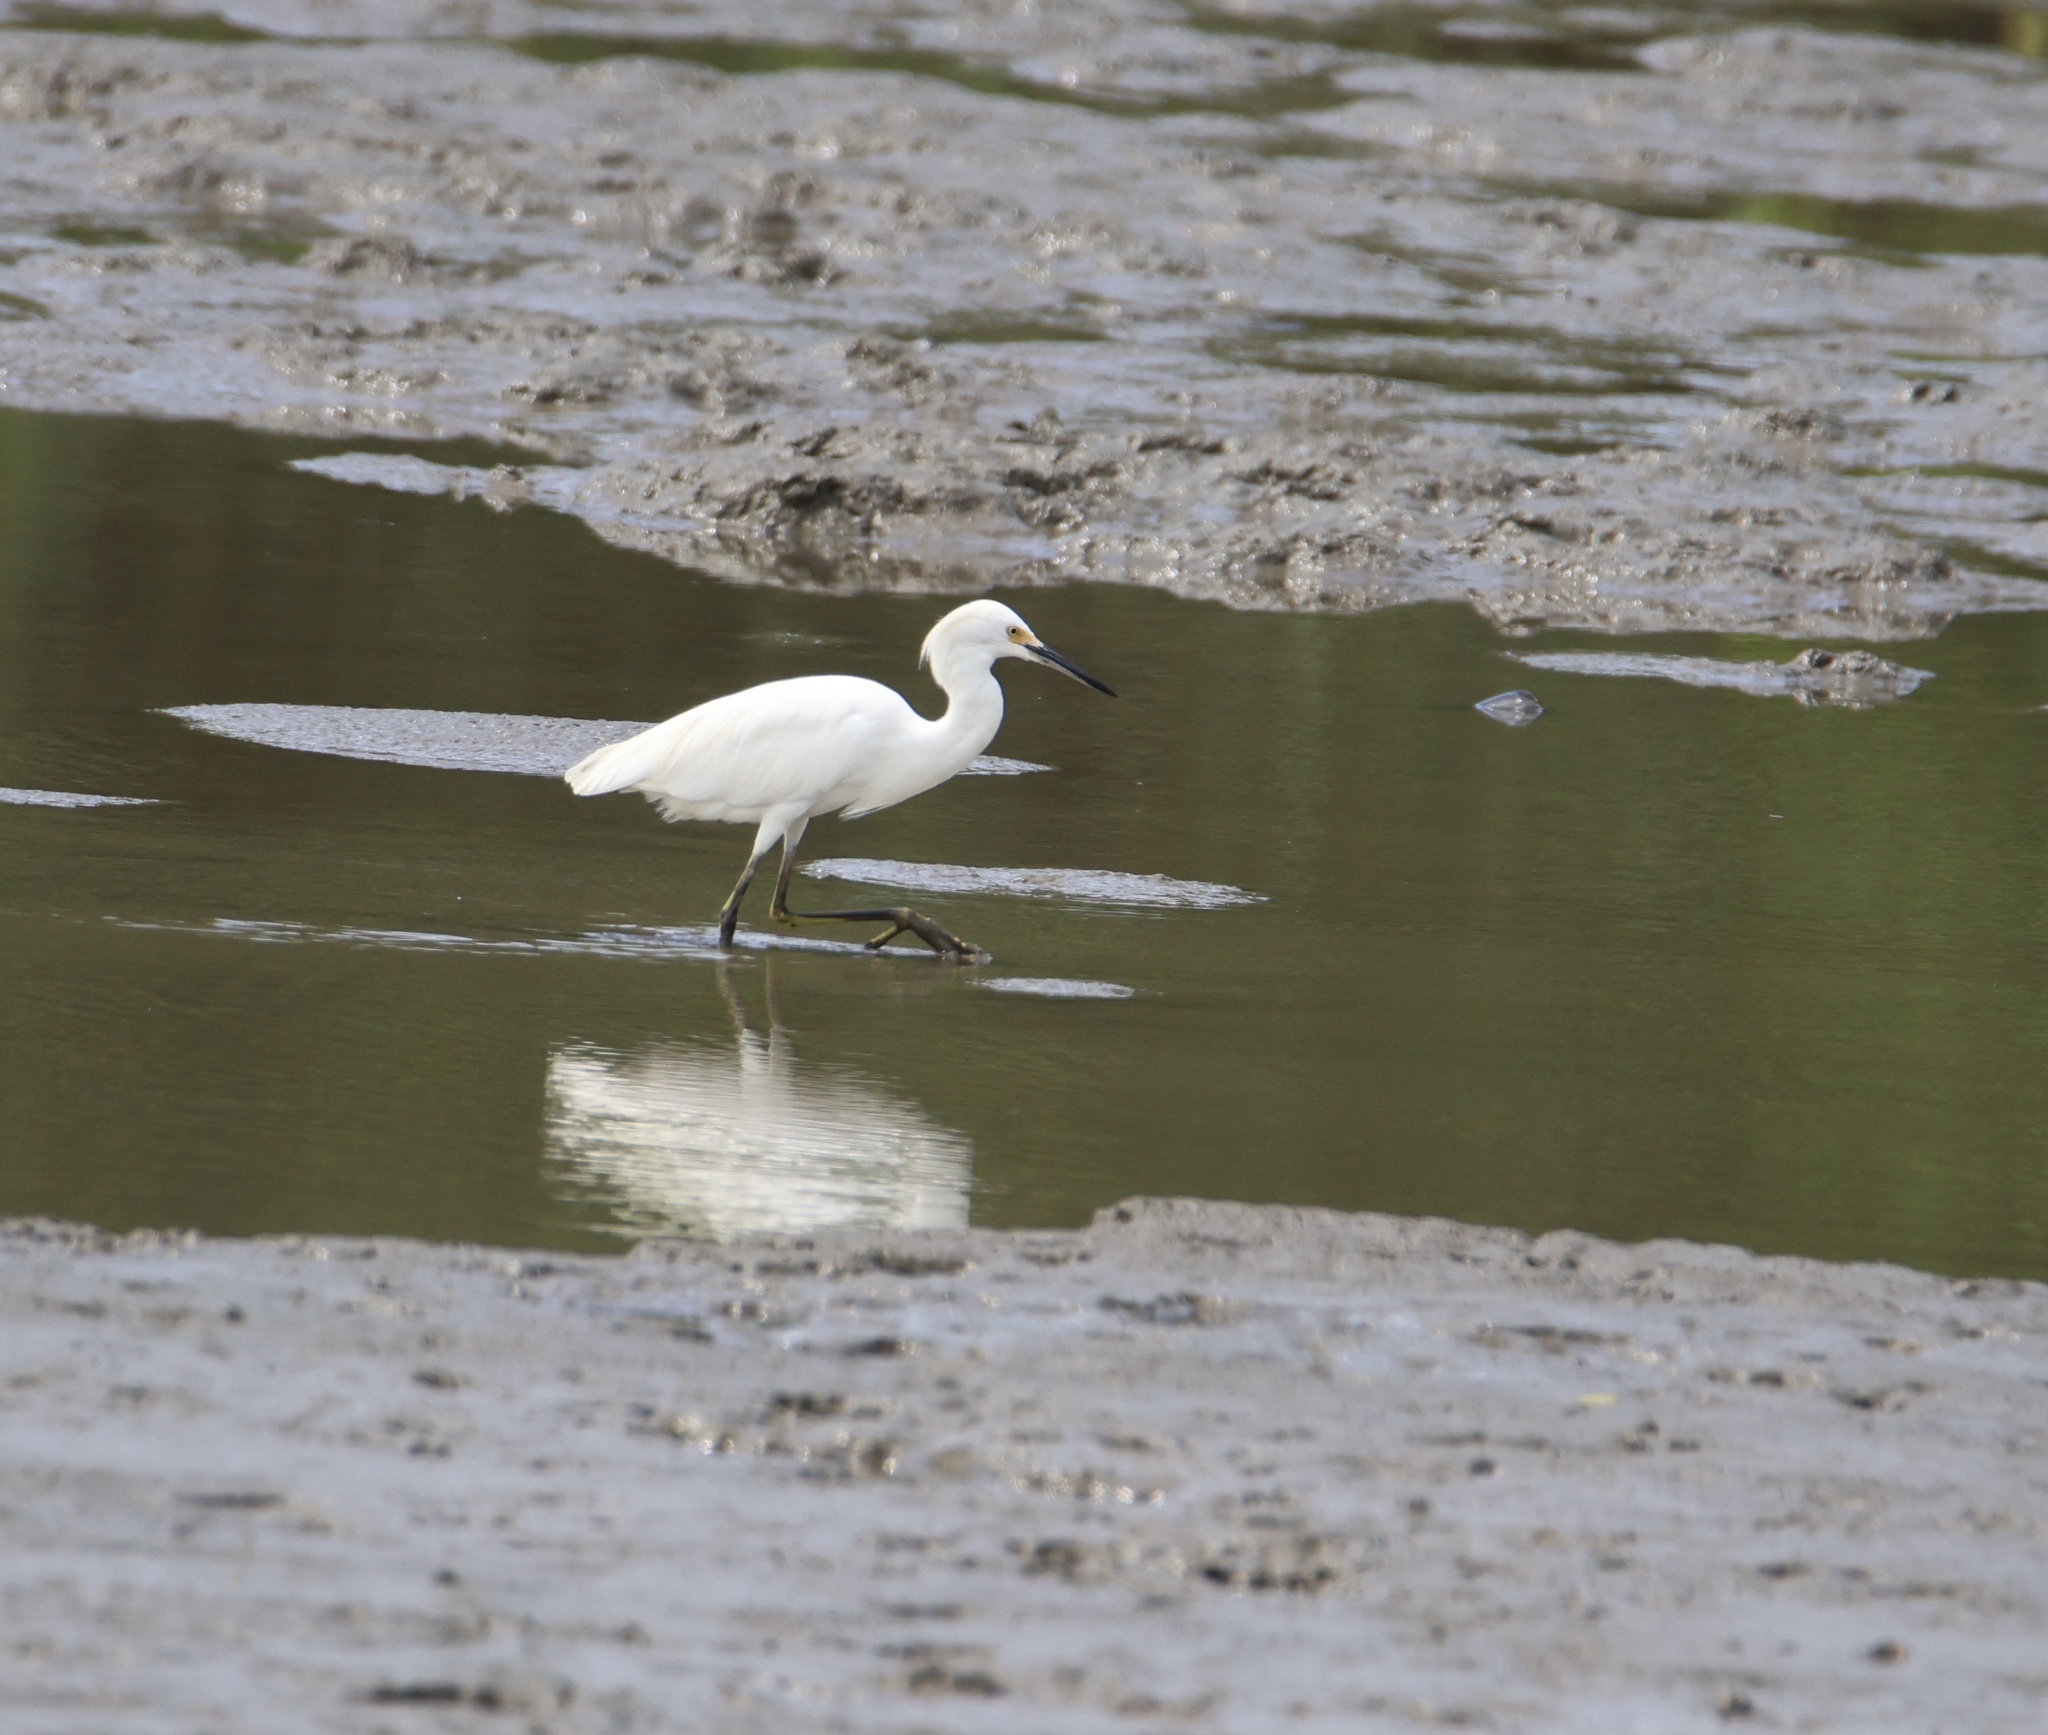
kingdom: Animalia
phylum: Chordata
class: Aves
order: Pelecaniformes
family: Ardeidae
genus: Egretta
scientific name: Egretta thula
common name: Snowy egret
